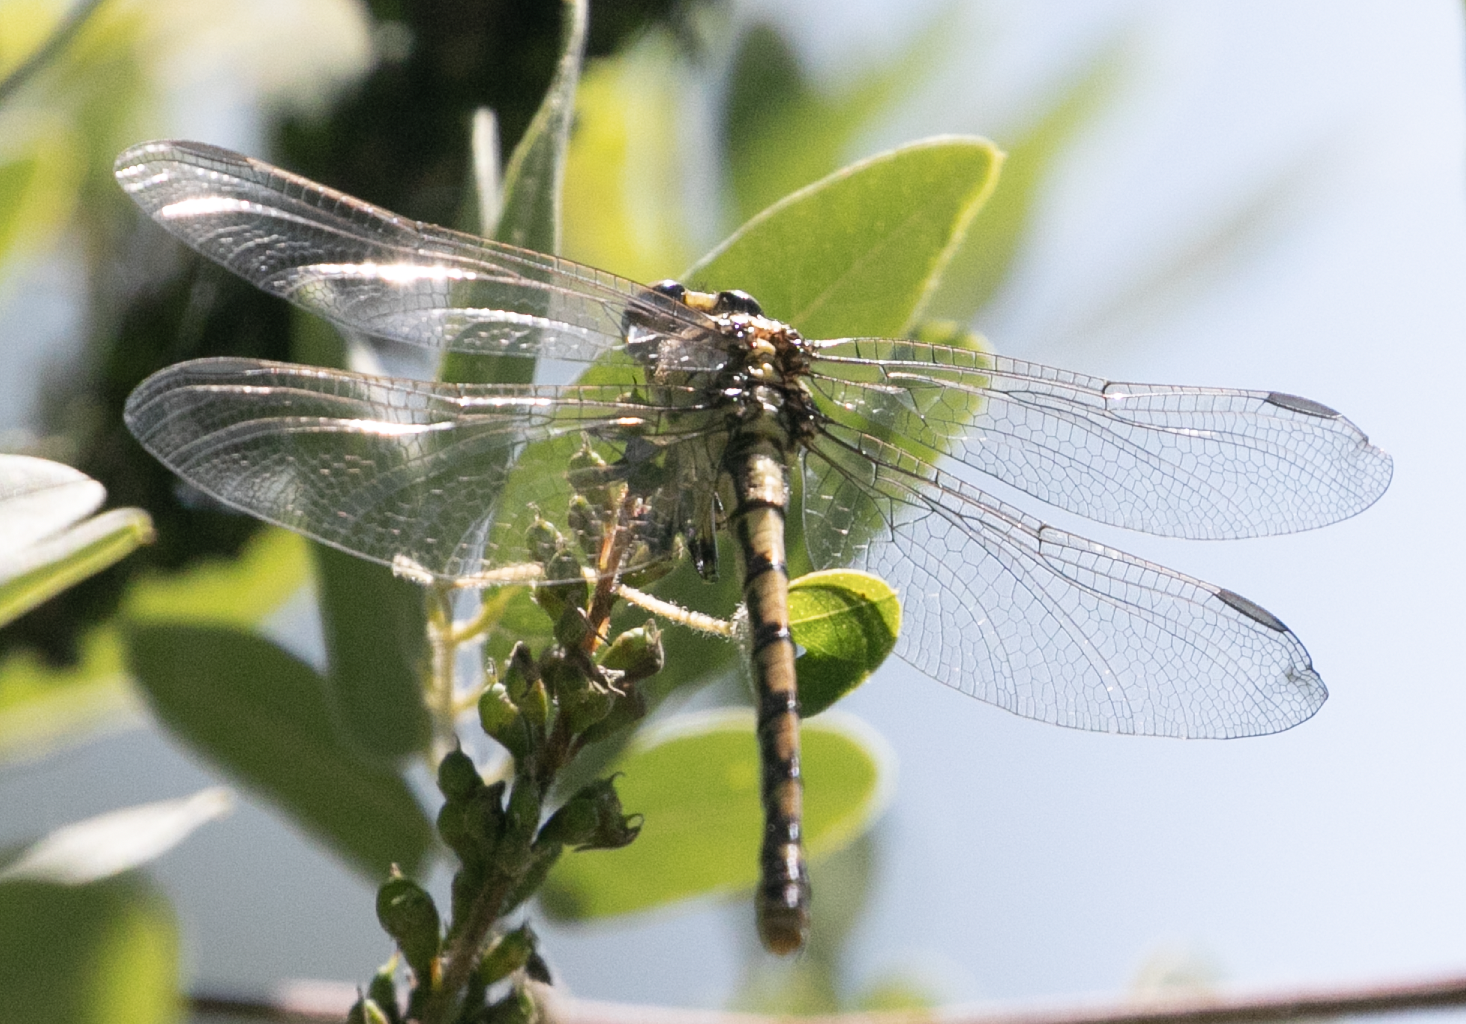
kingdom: Animalia
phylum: Arthropoda
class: Insecta
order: Odonata
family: Gomphidae
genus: Onychogomphus
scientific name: Onychogomphus forcipatus
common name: Small pincertail
